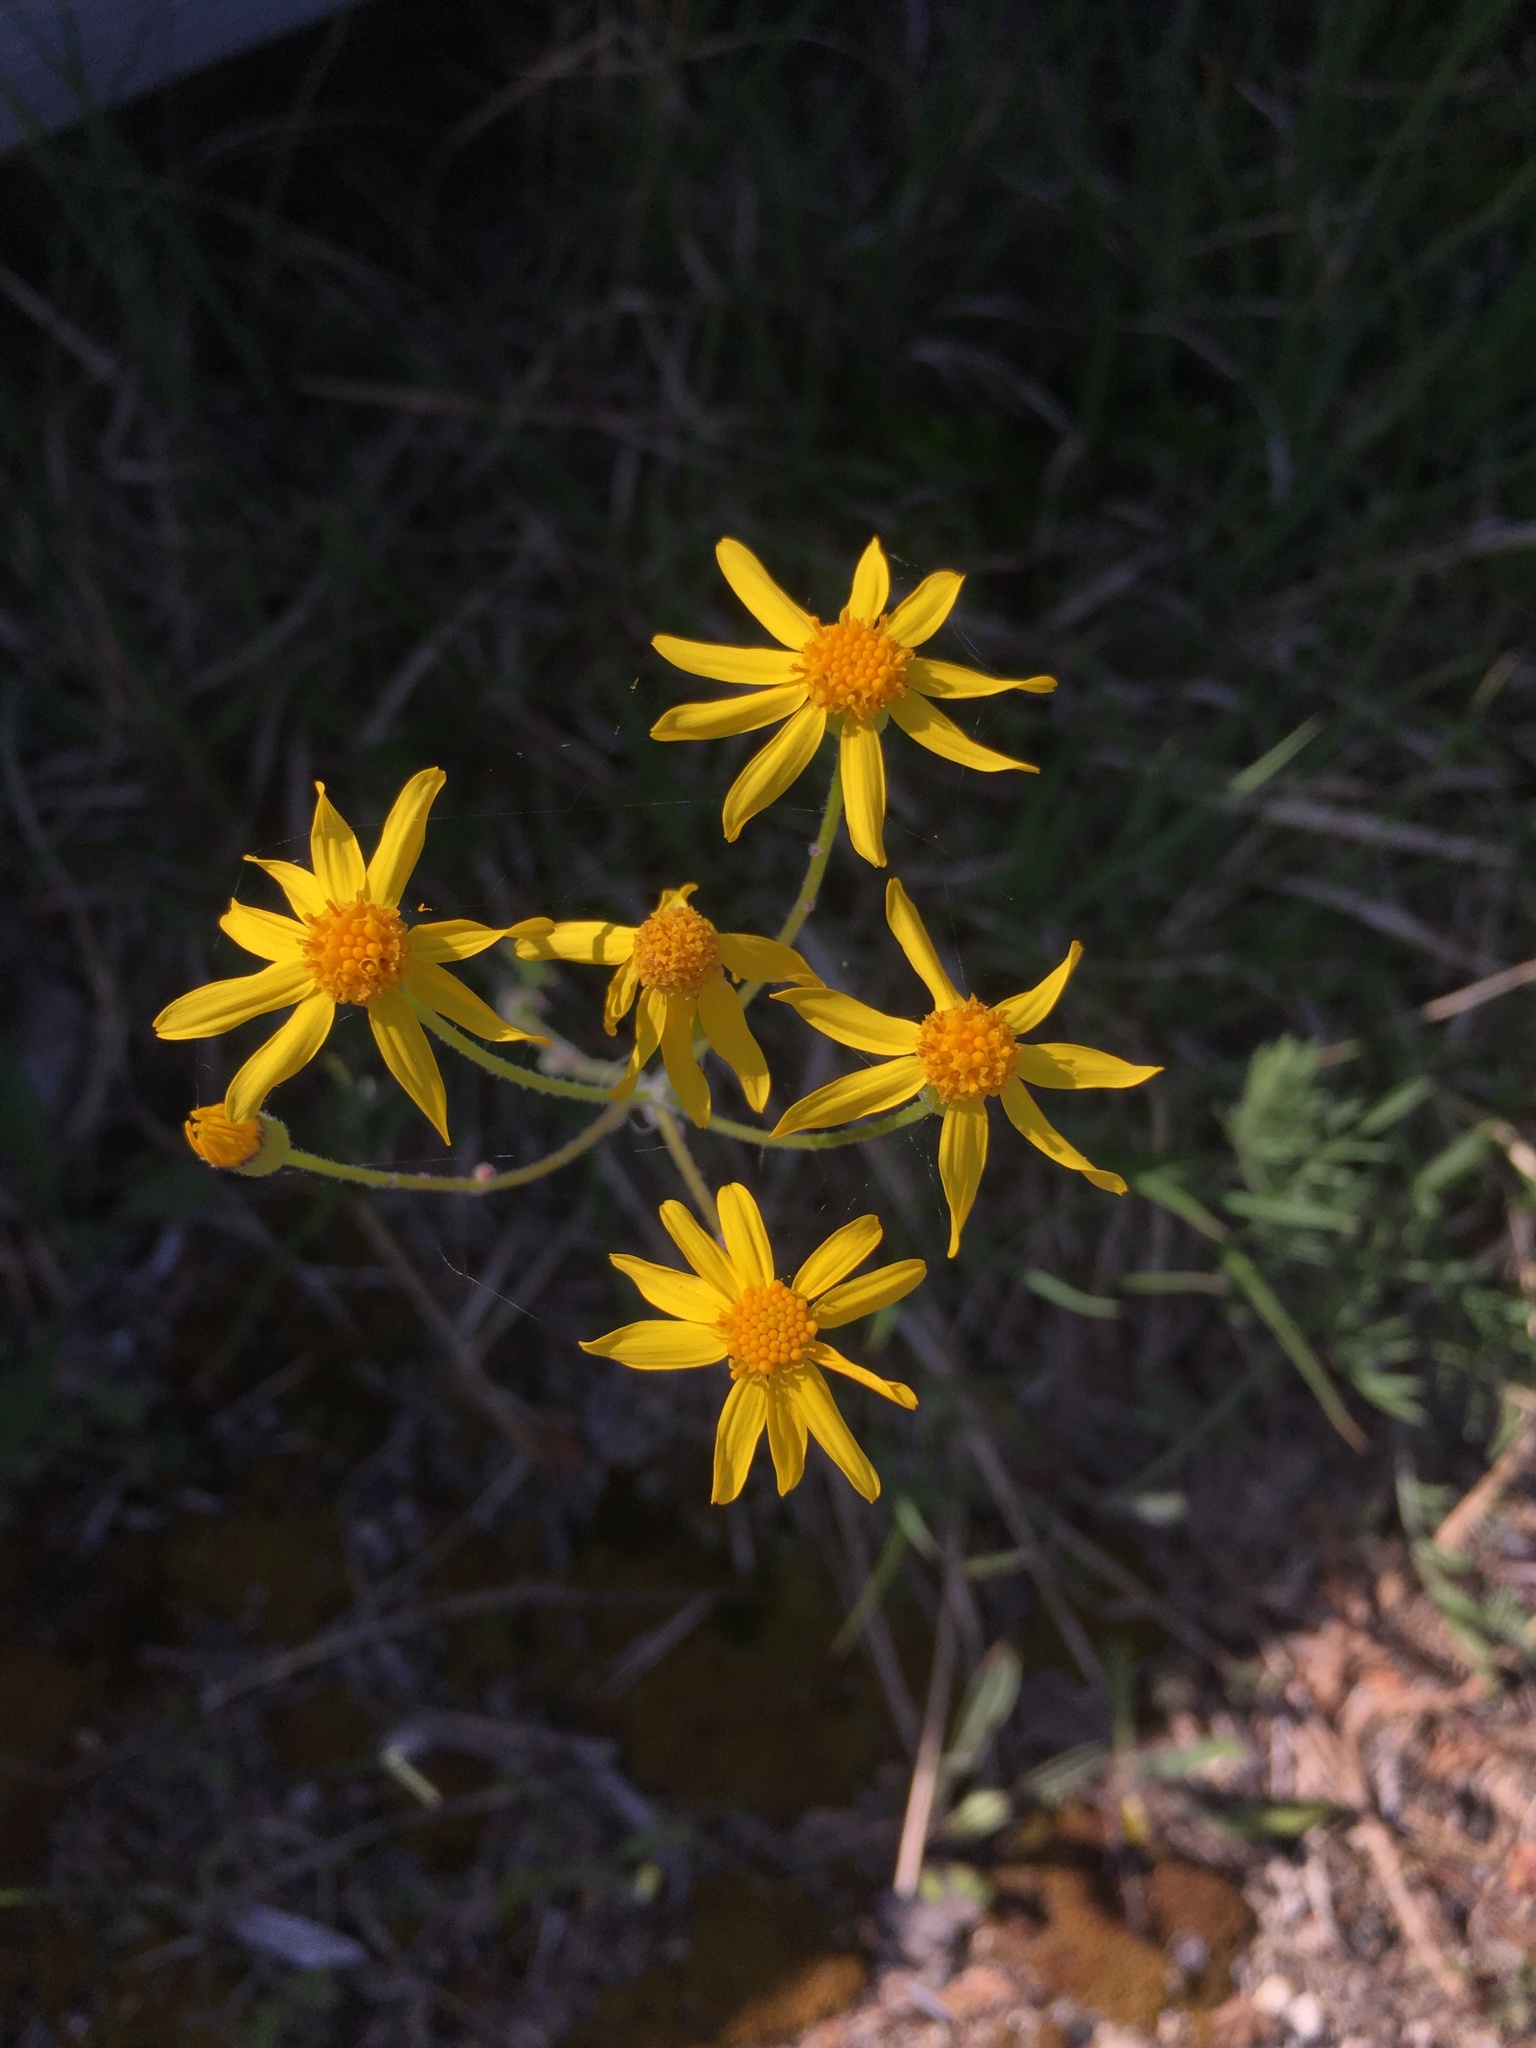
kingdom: Plantae
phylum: Tracheophyta
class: Magnoliopsida
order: Asterales
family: Asteraceae
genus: Packera
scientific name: Packera paupercula
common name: Balsam groundsel
